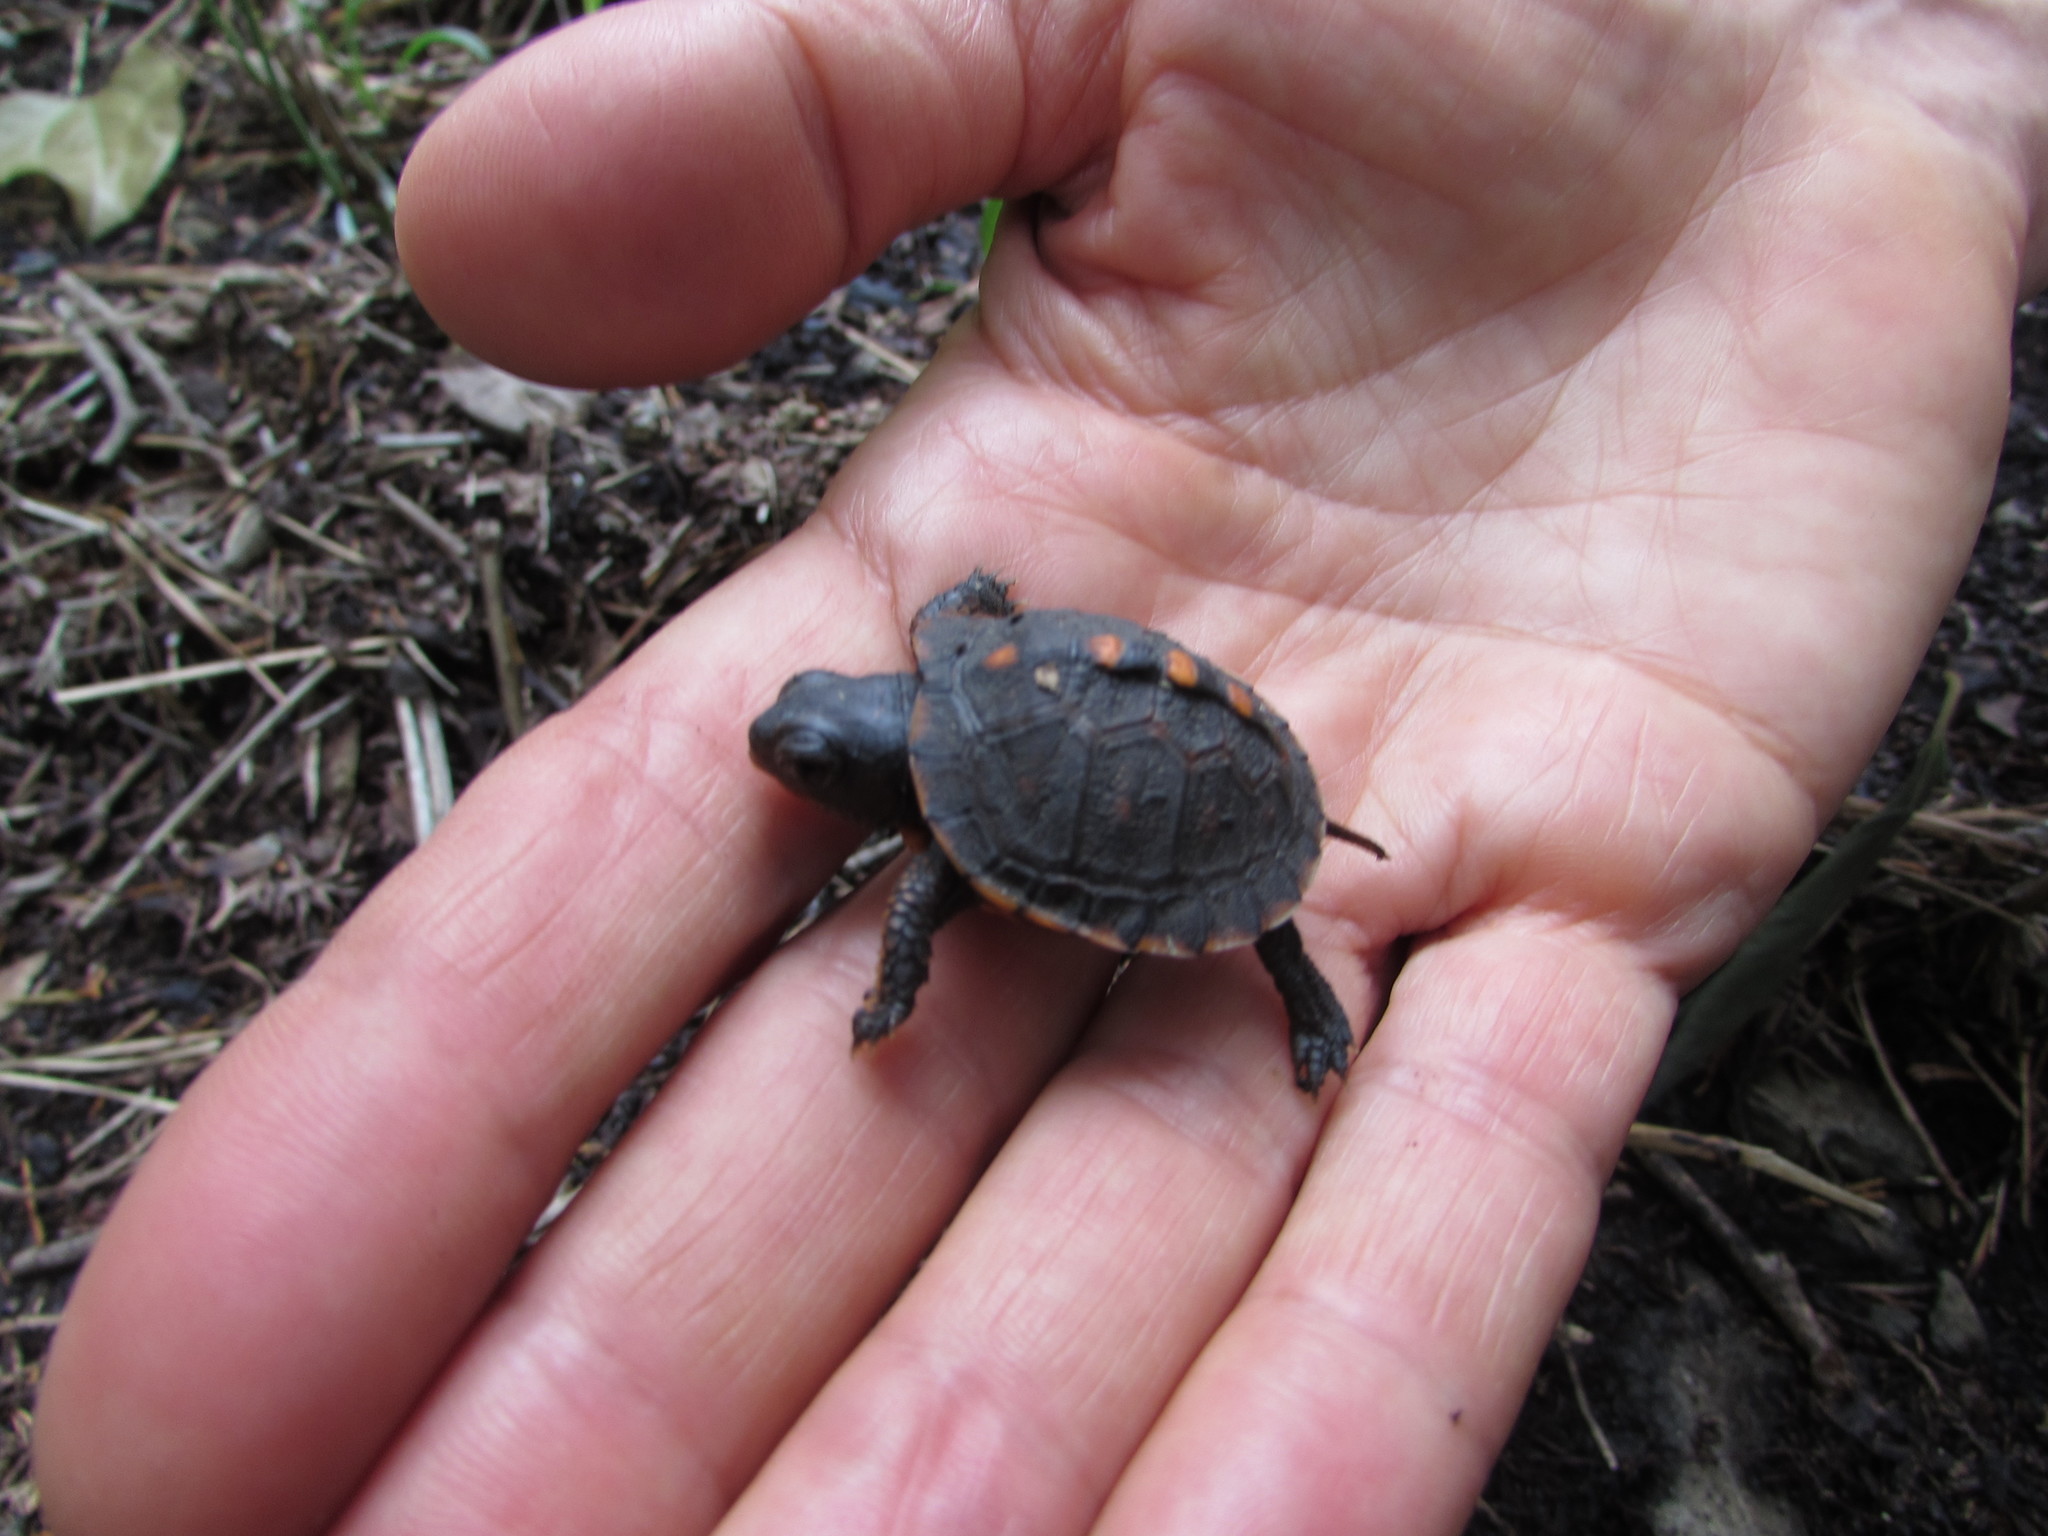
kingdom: Animalia
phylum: Chordata
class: Testudines
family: Emydidae
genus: Terrapene
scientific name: Terrapene carolina
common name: Common box turtle
